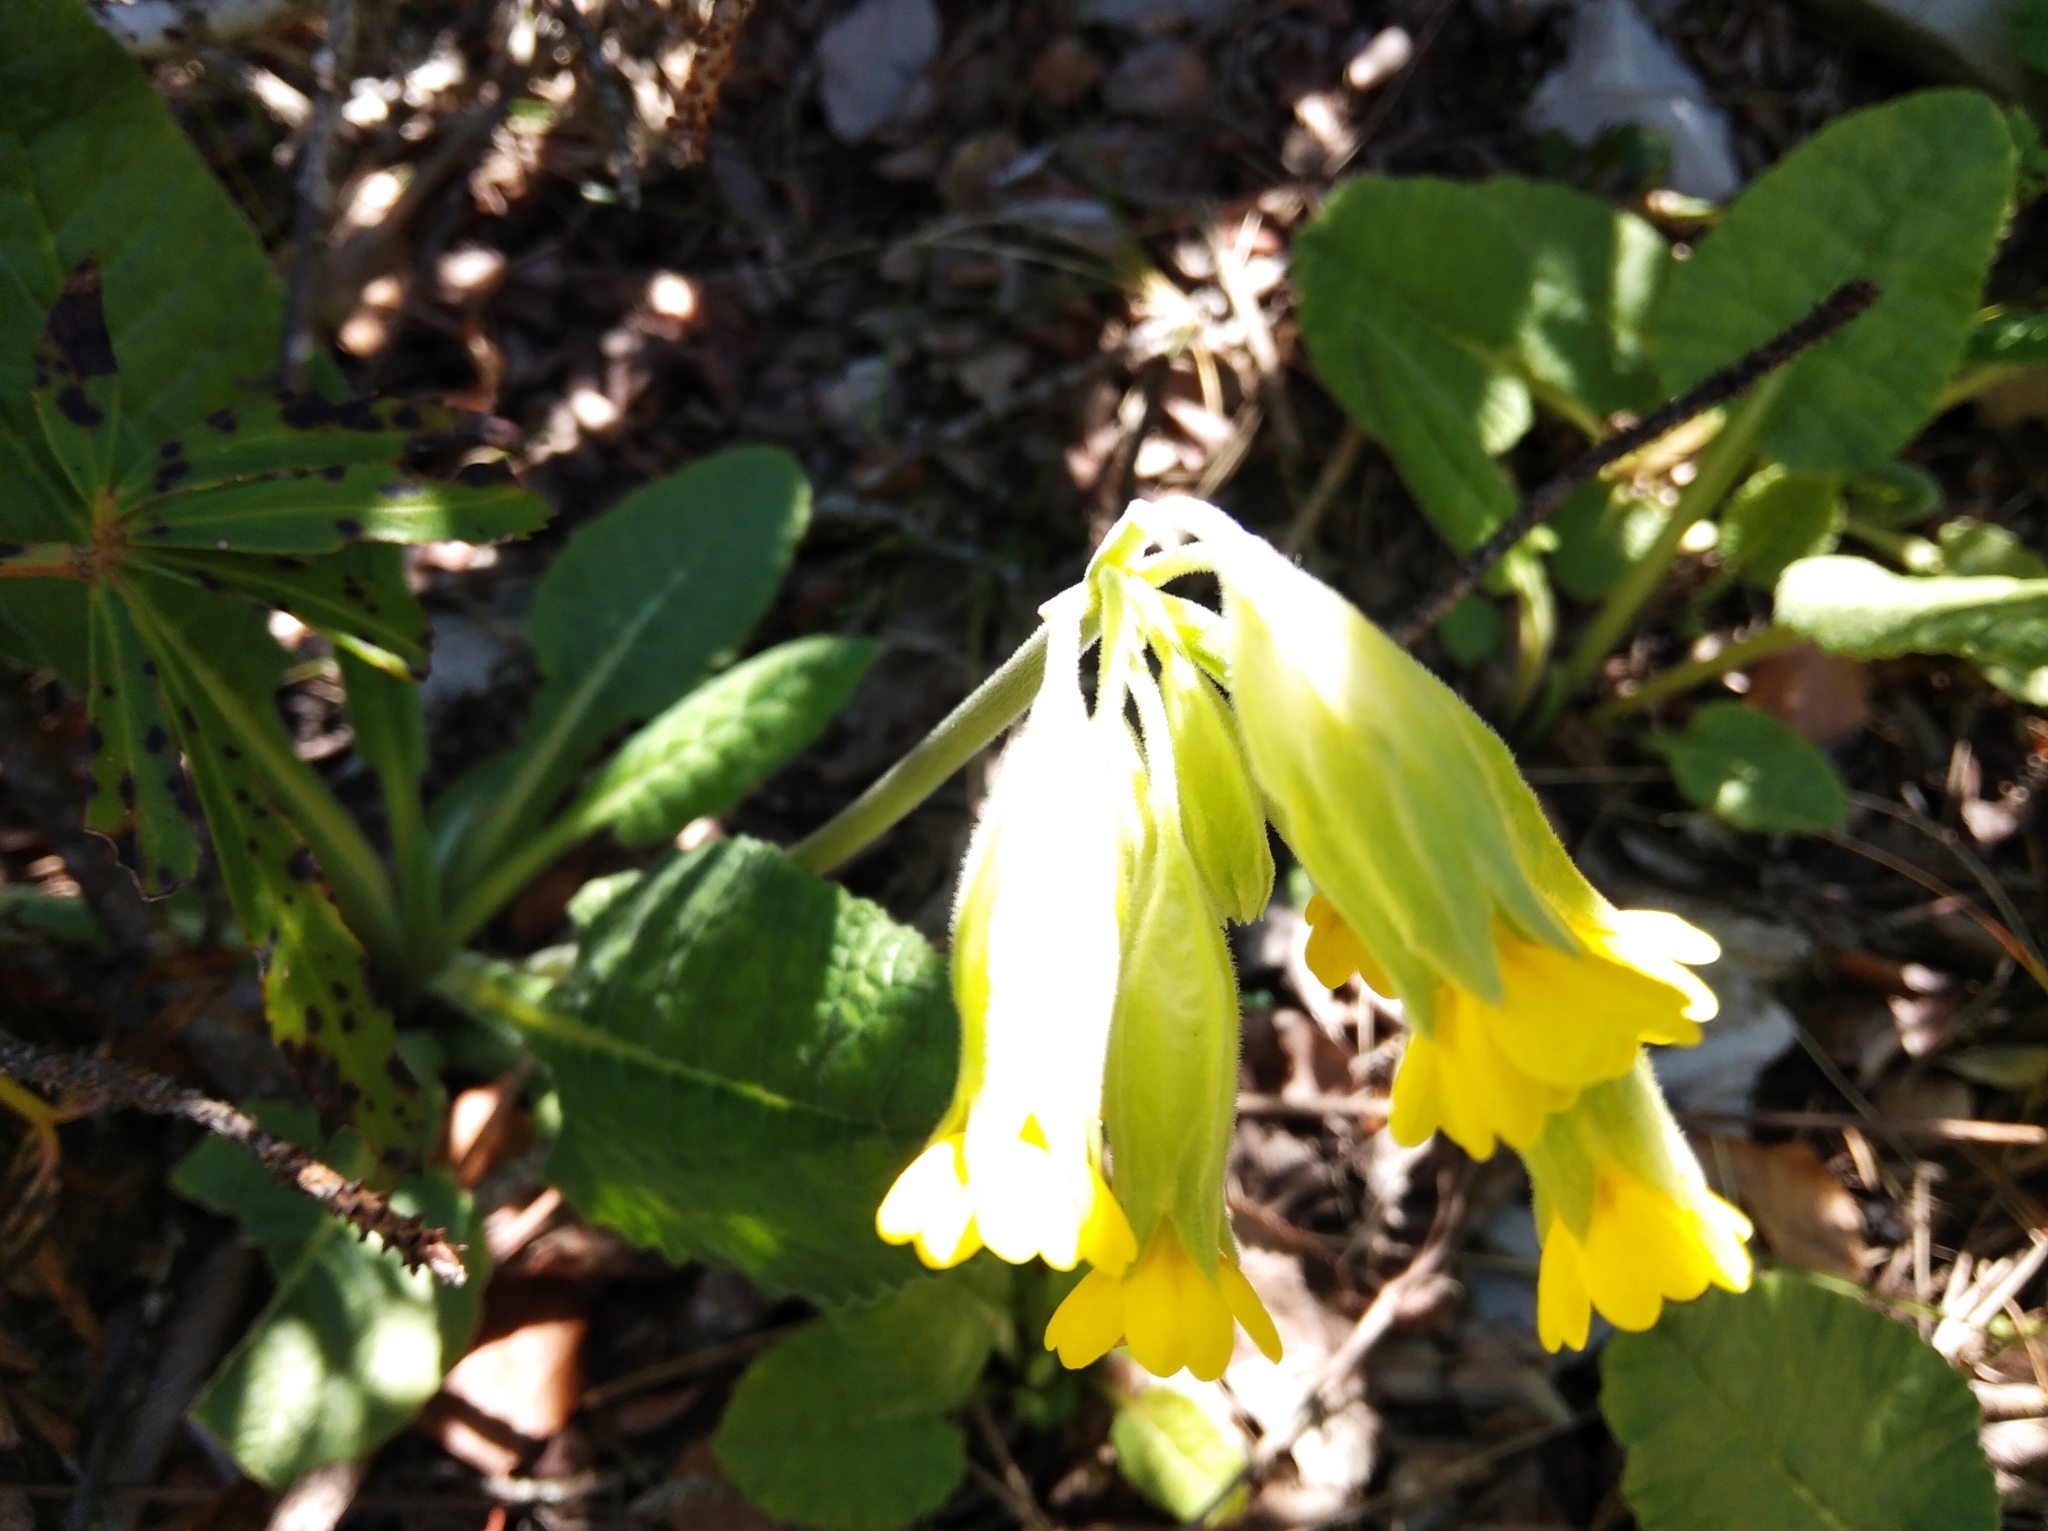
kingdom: Plantae
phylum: Tracheophyta
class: Magnoliopsida
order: Ericales
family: Primulaceae
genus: Primula
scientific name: Primula veris
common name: Cowslip
